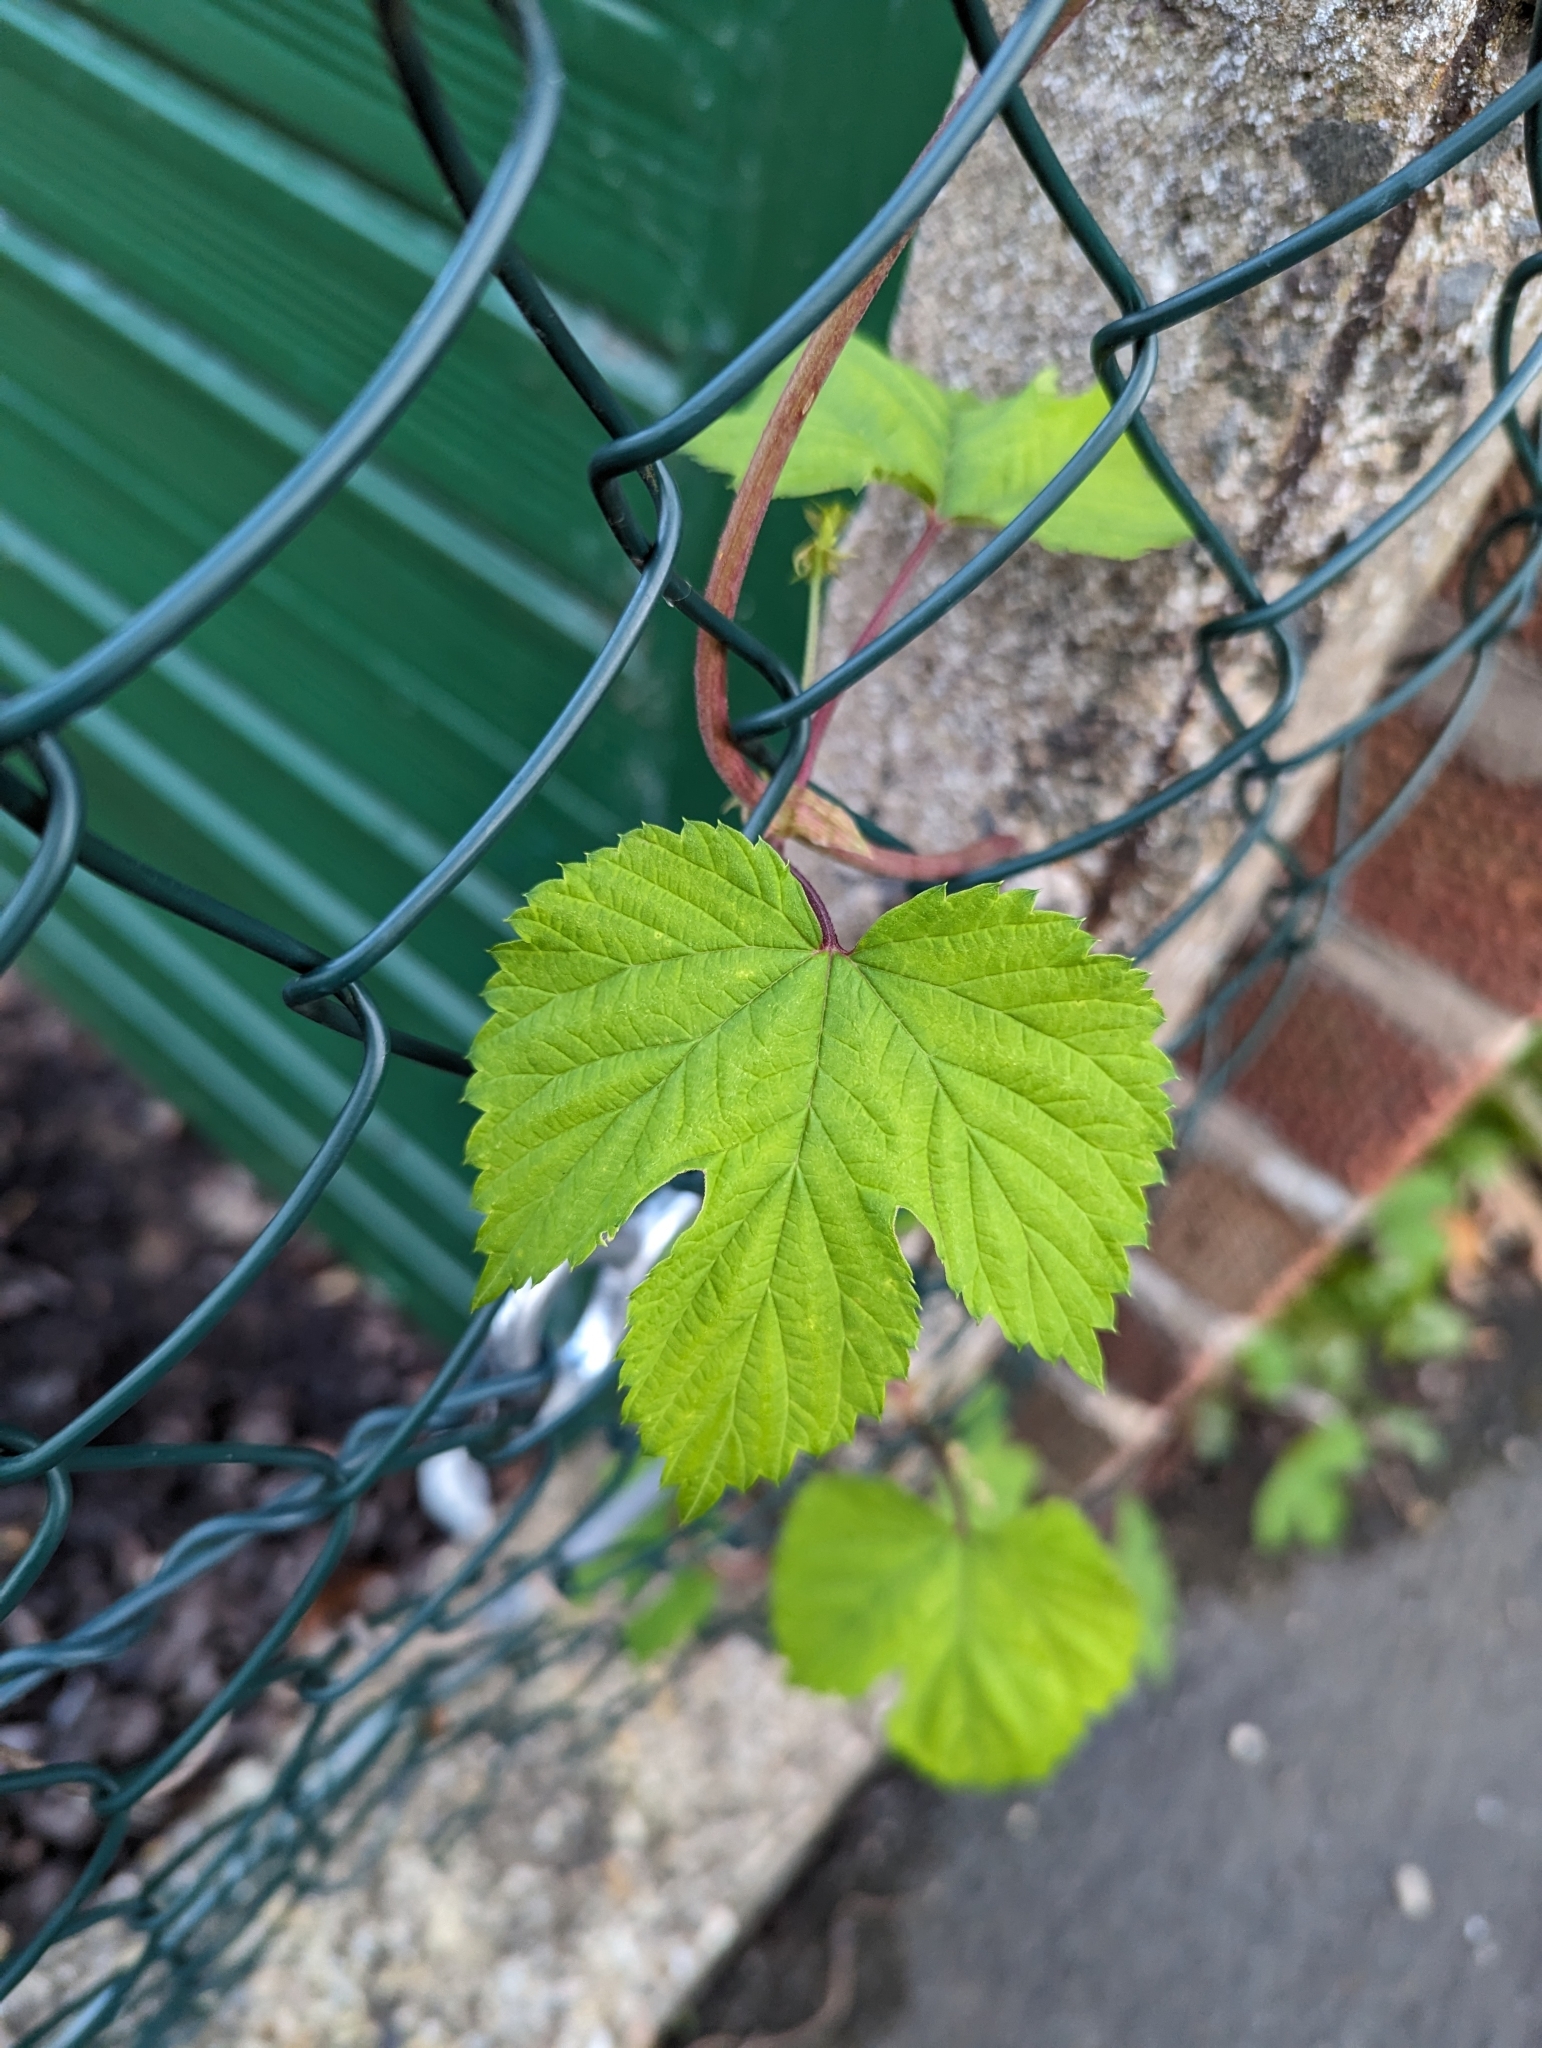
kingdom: Plantae
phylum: Tracheophyta
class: Magnoliopsida
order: Rosales
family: Cannabaceae
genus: Humulus
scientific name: Humulus lupulus
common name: Hop
